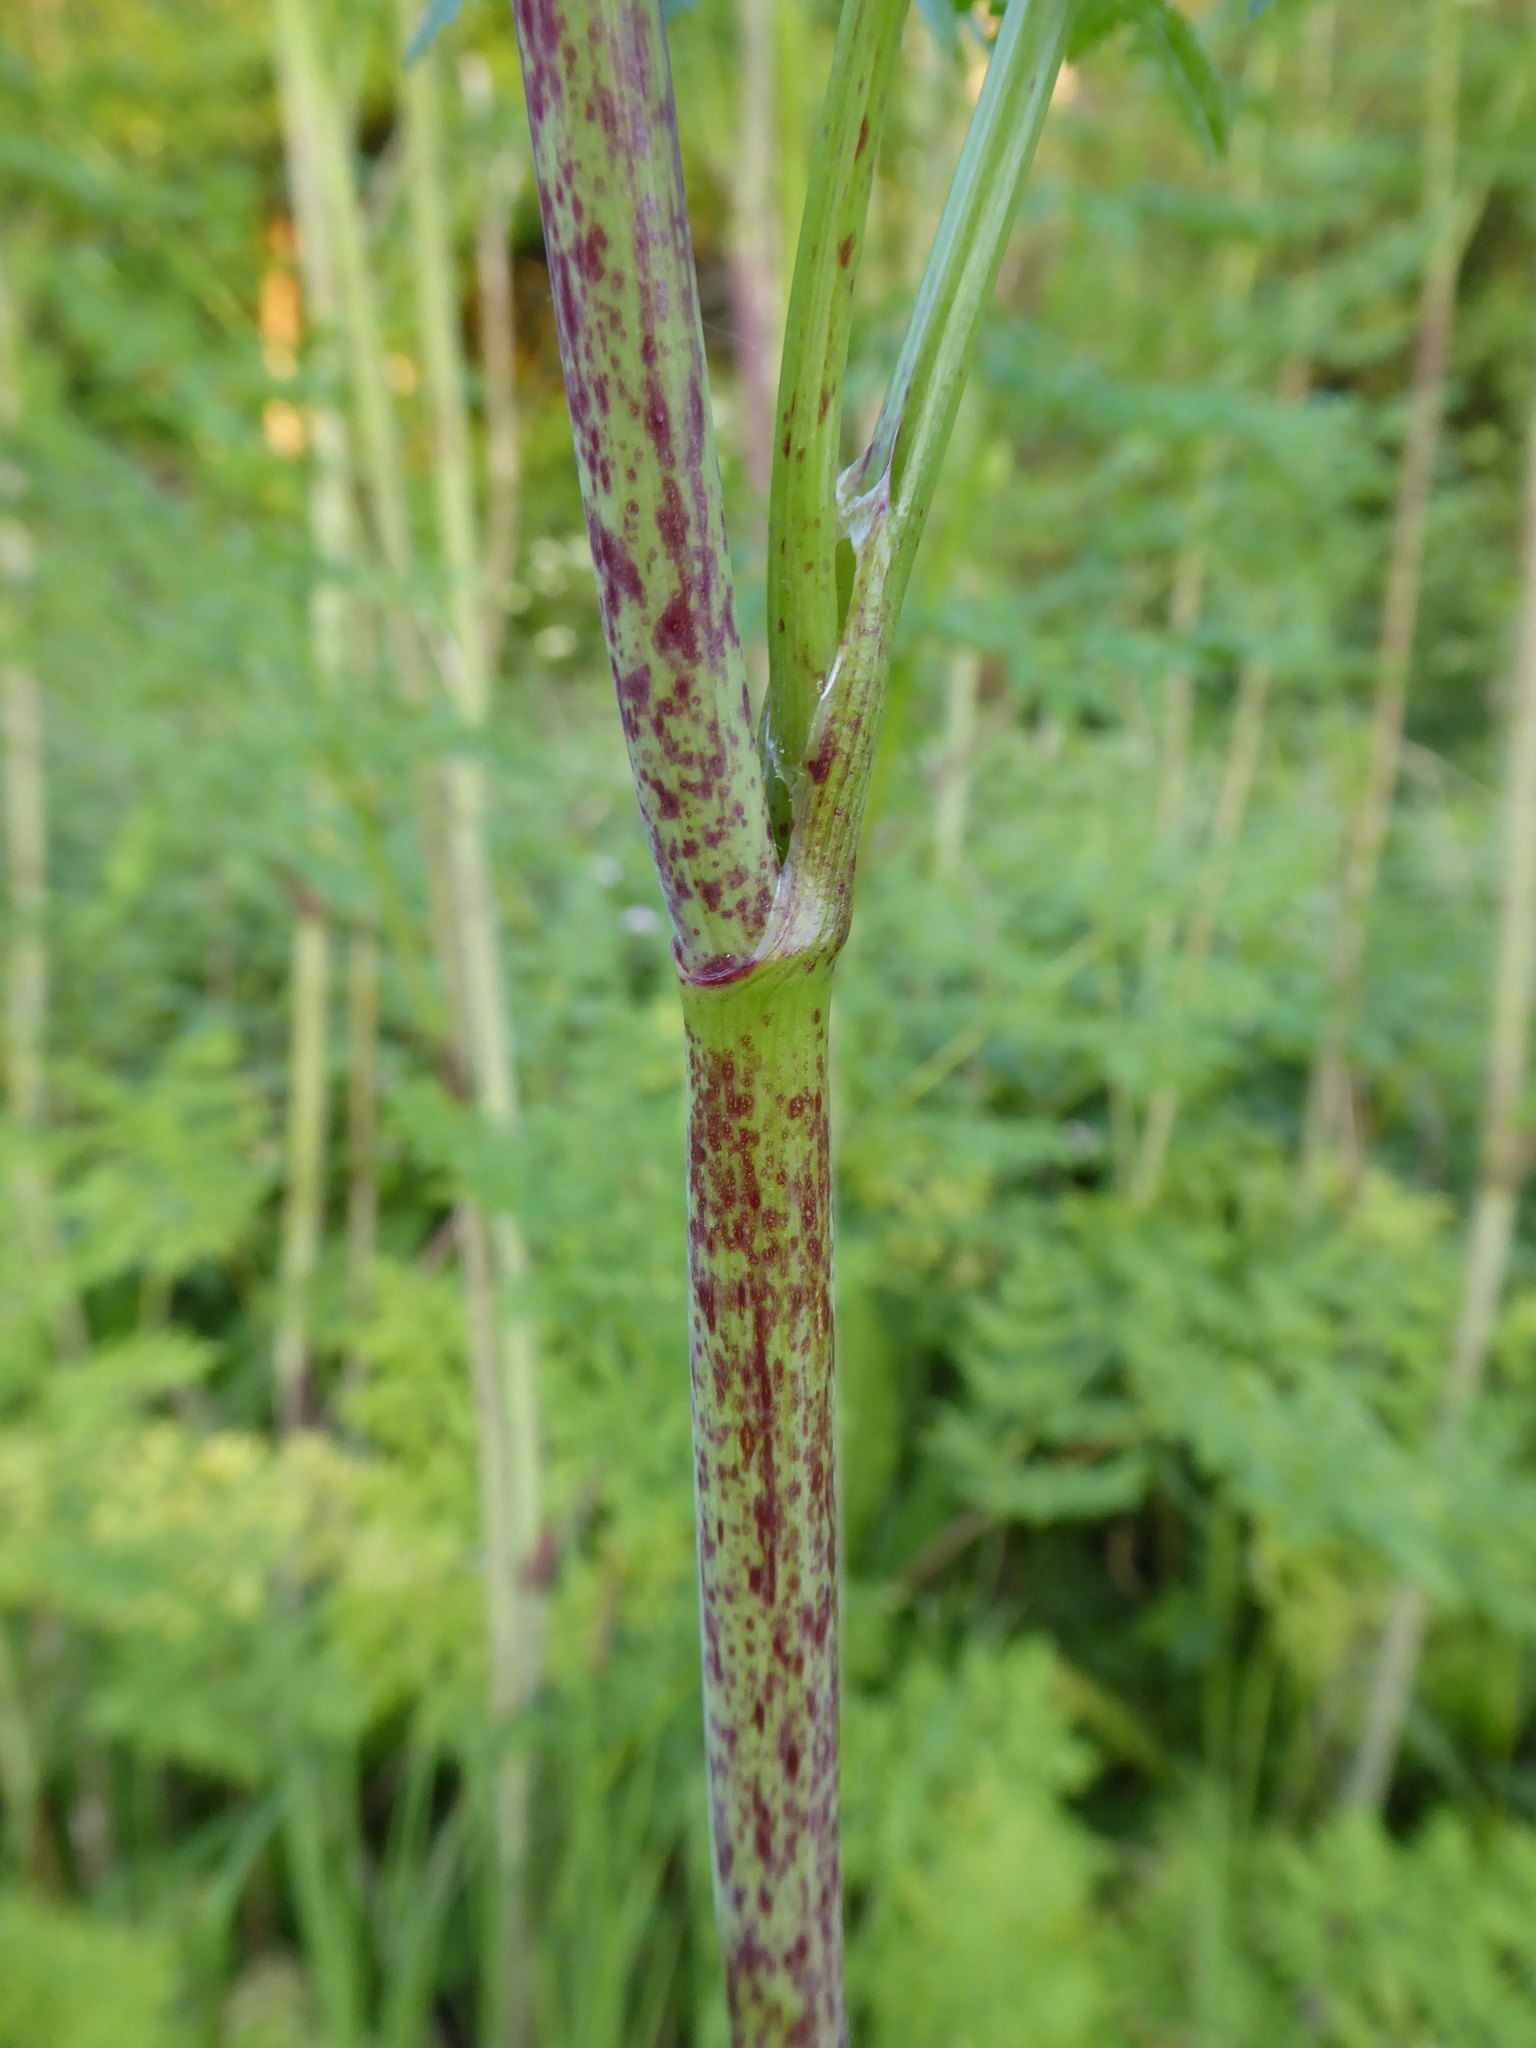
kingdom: Plantae
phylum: Tracheophyta
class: Magnoliopsida
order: Apiales
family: Apiaceae
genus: Conium
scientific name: Conium maculatum
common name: Hemlock
